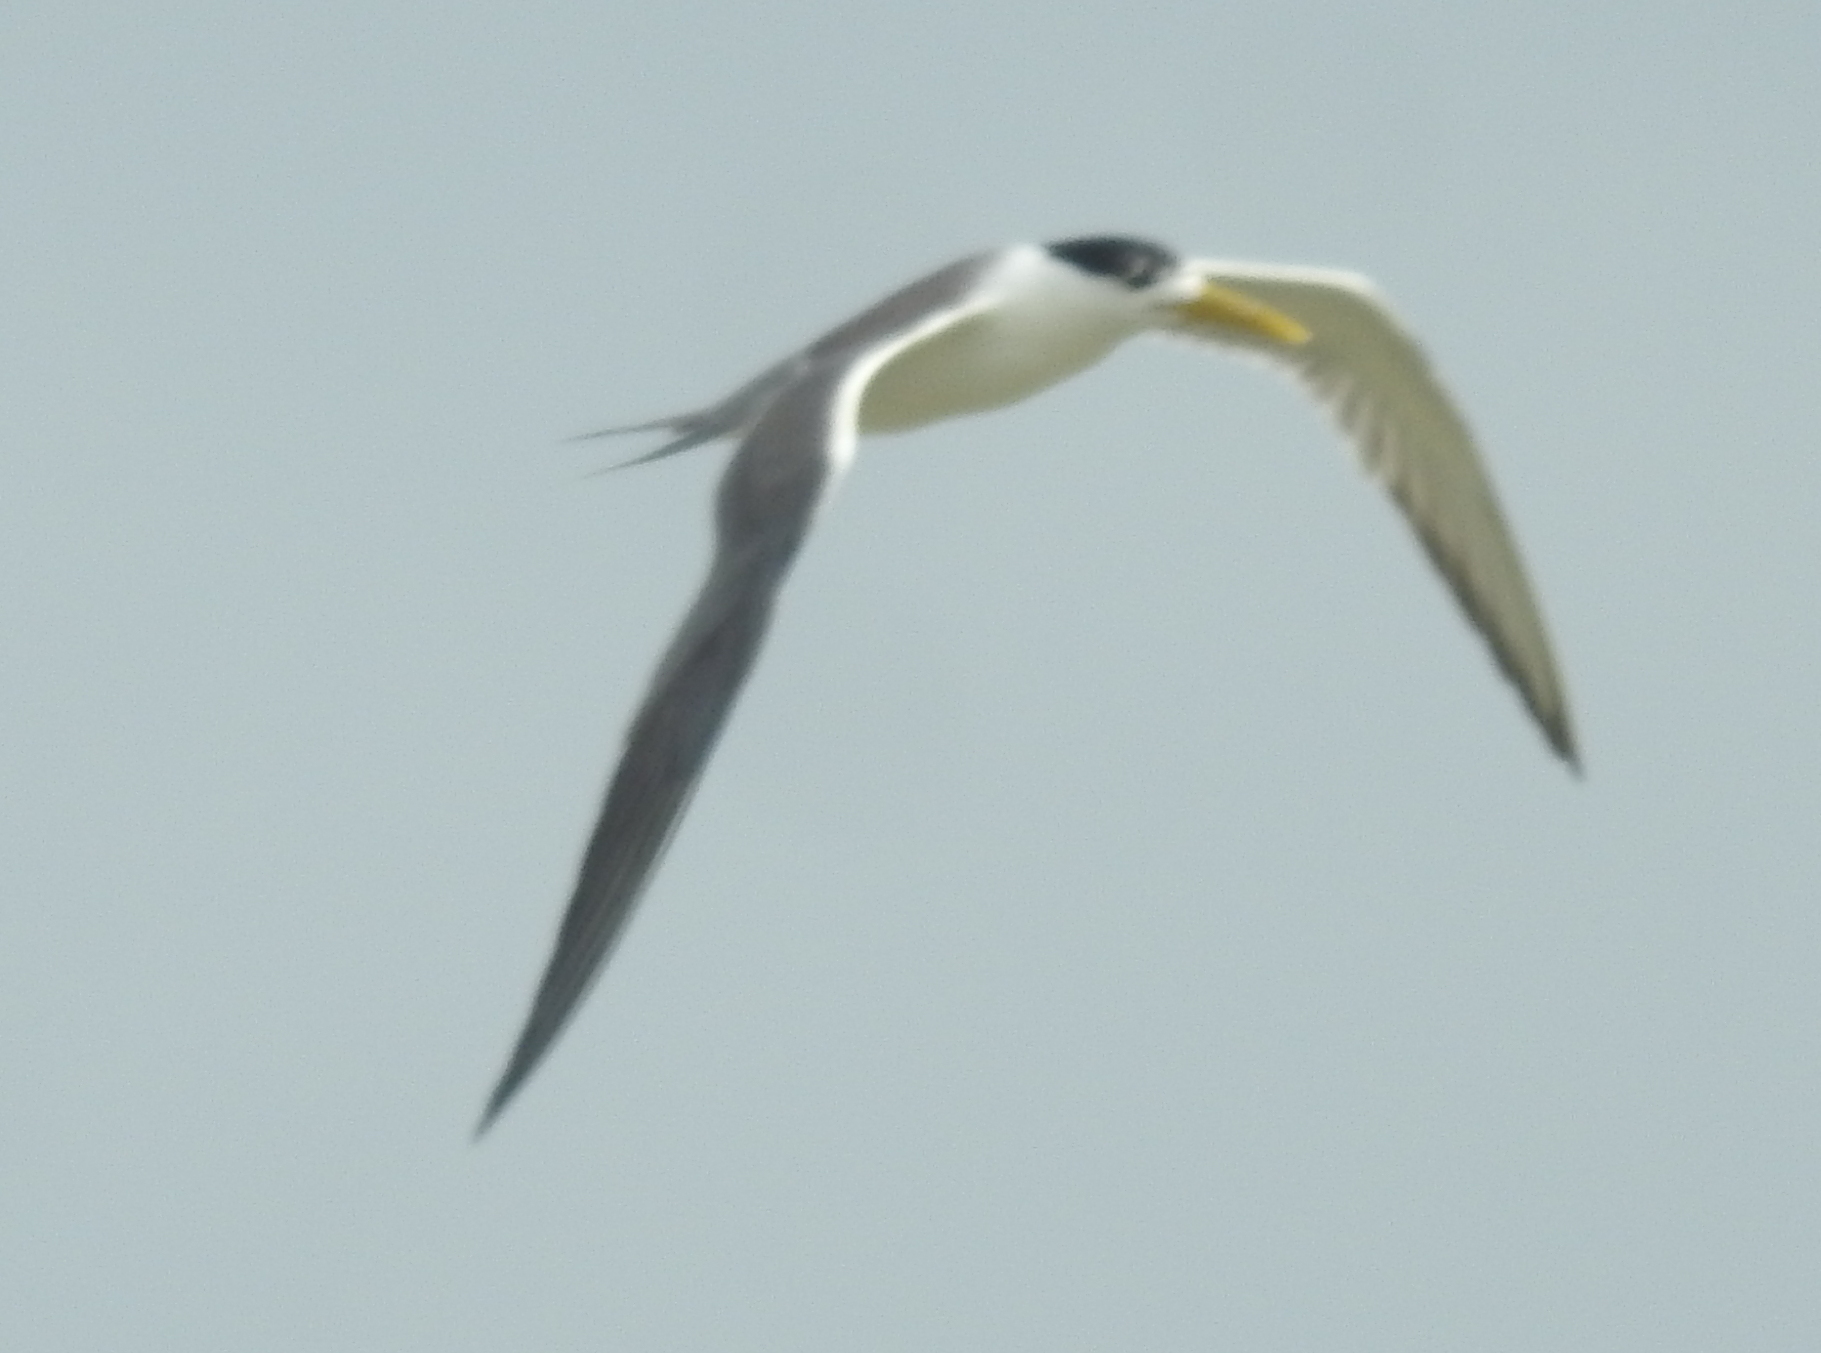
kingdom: Animalia
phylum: Chordata
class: Aves
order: Charadriiformes
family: Laridae
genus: Thalasseus
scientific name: Thalasseus bergii
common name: Greater crested tern
